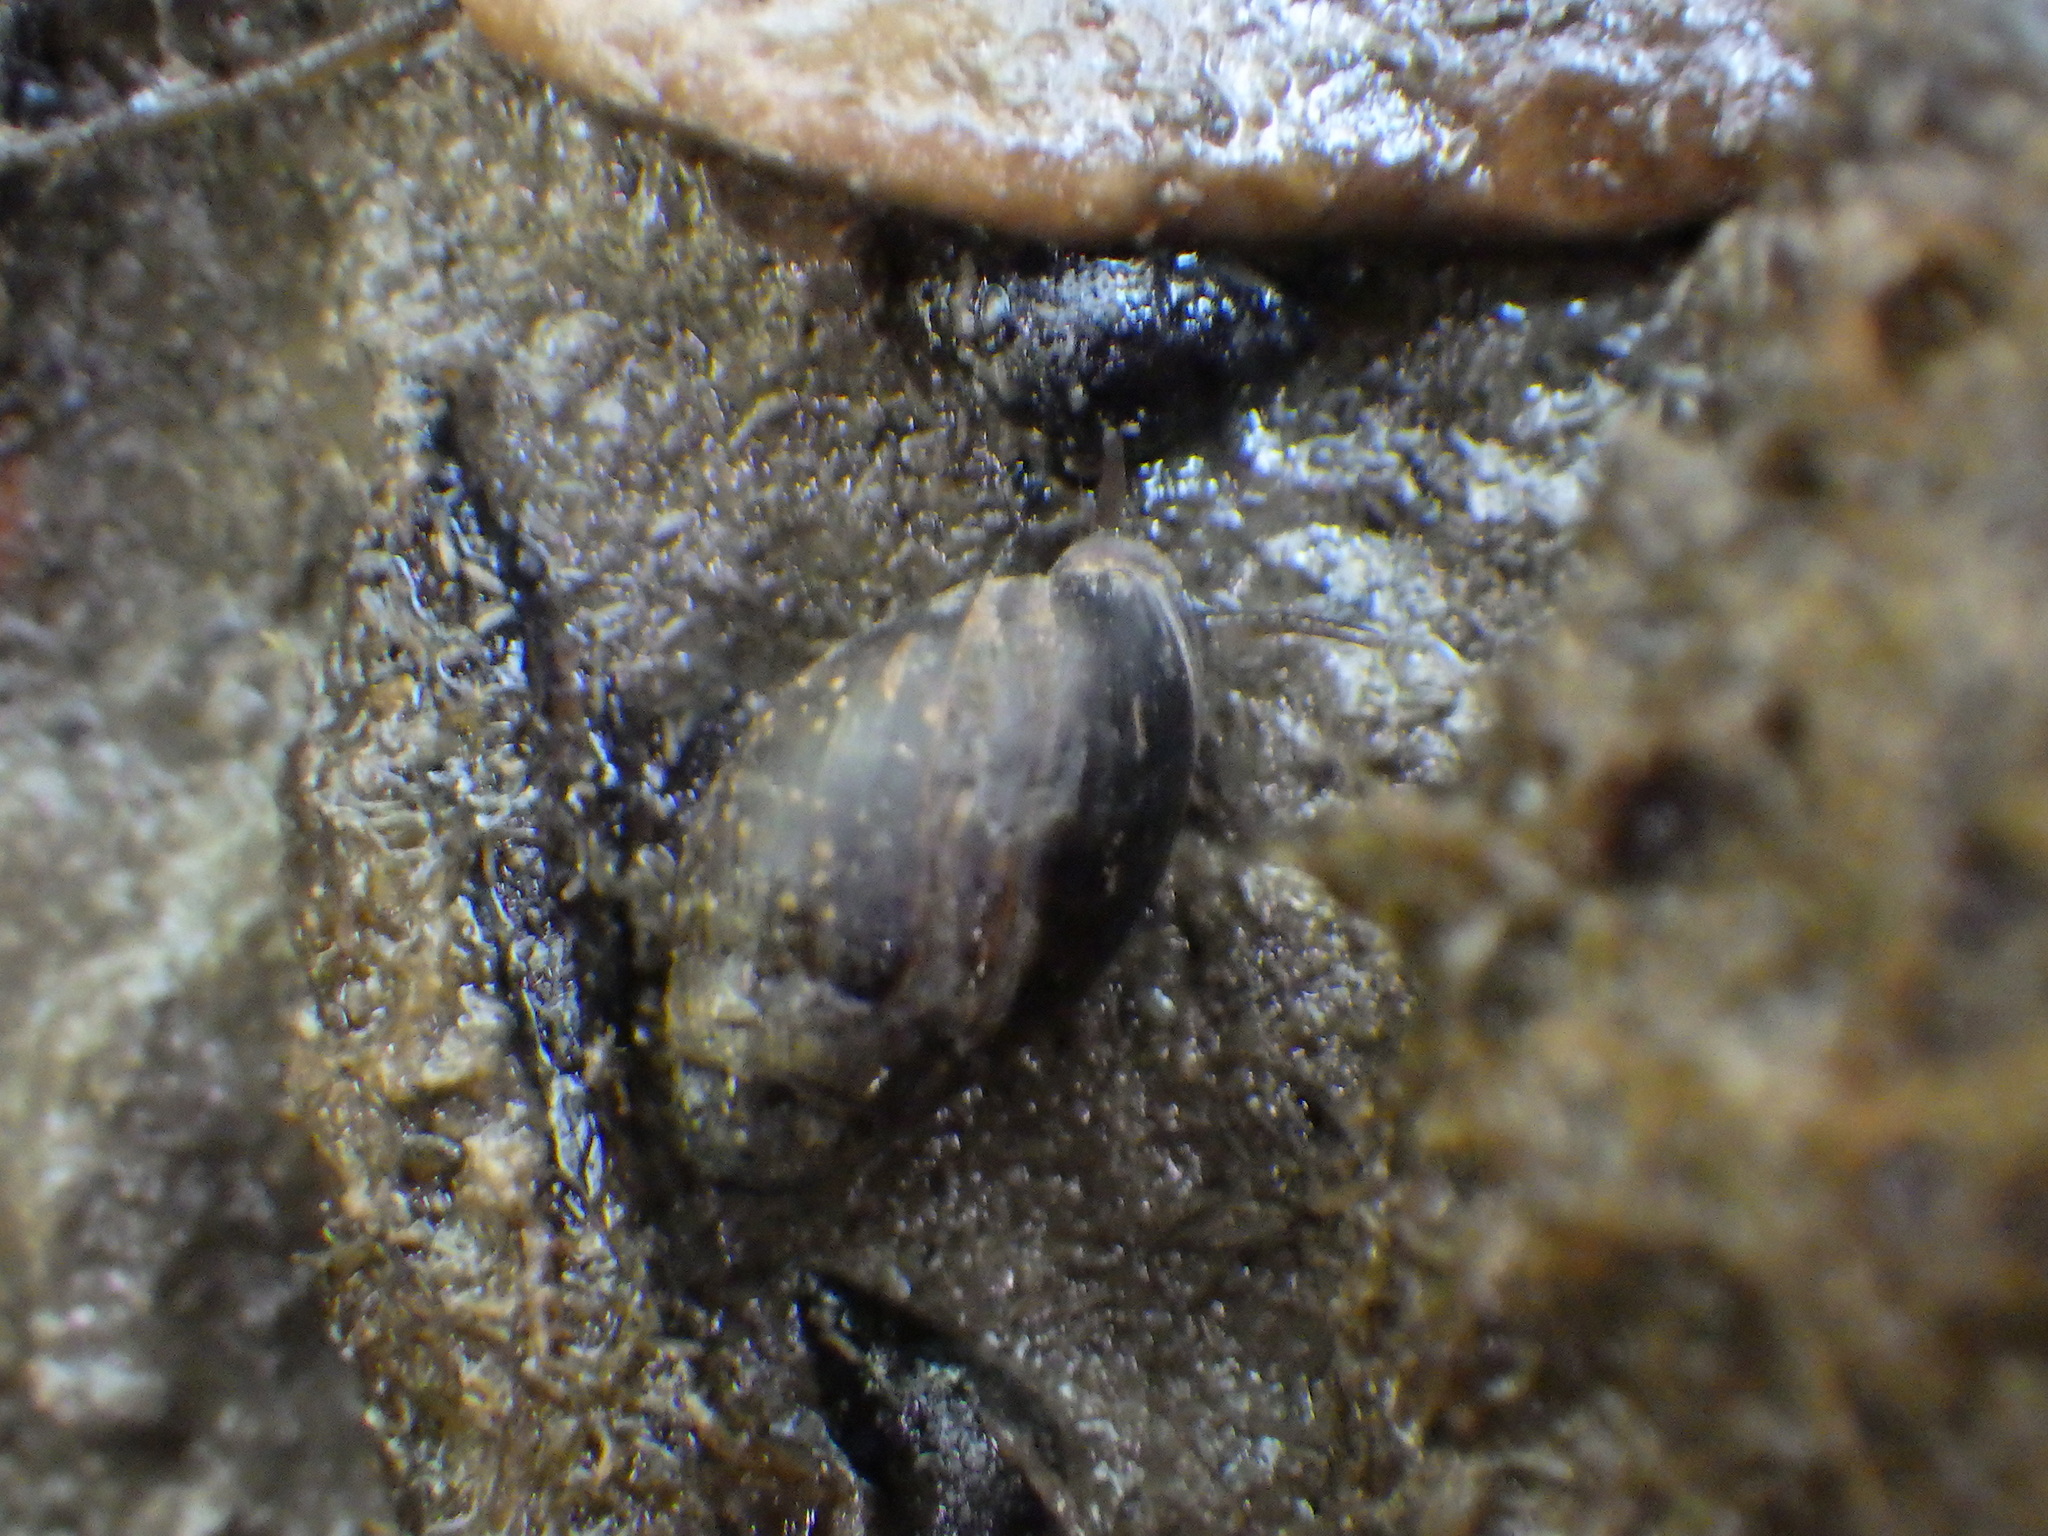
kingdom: Animalia
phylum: Mollusca
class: Gastropoda
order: Ellobiida
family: Ellobiidae
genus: Pleuroloba
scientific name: Pleuroloba costellaris
